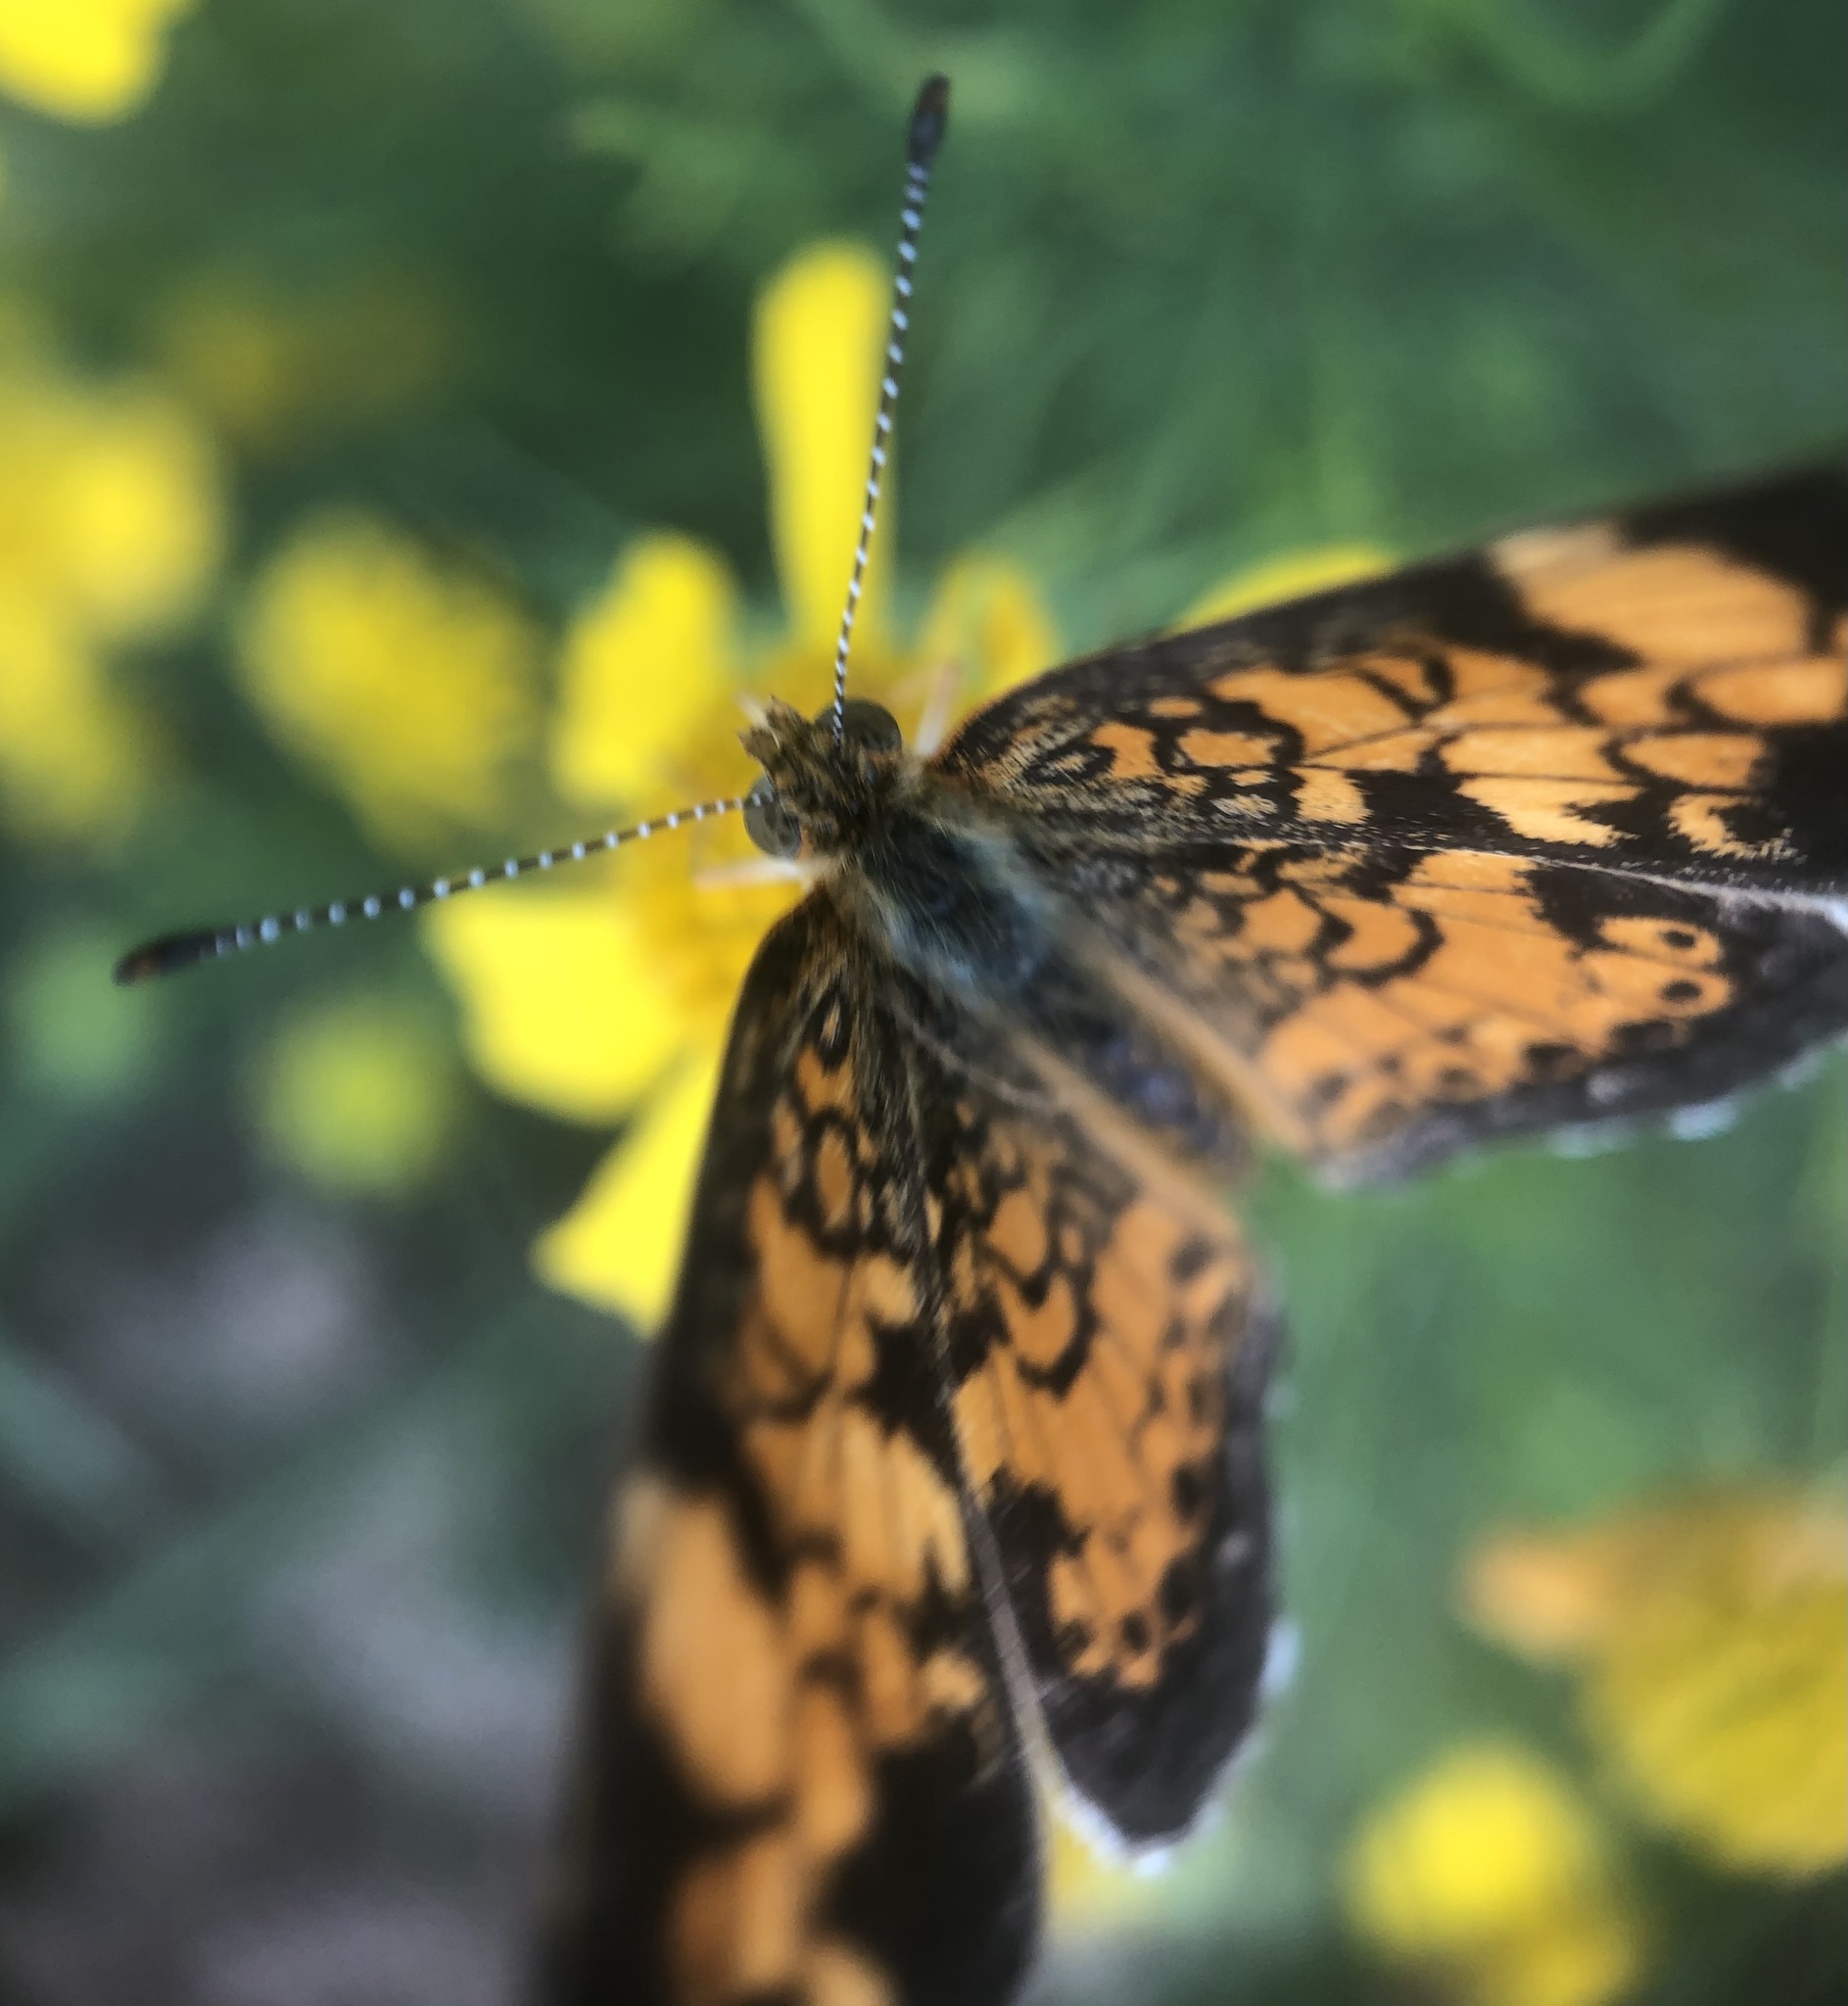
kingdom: Animalia
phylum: Arthropoda
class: Insecta
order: Lepidoptera
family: Nymphalidae
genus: Phyciodes
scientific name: Phyciodes tharos
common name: Pearl crescent
